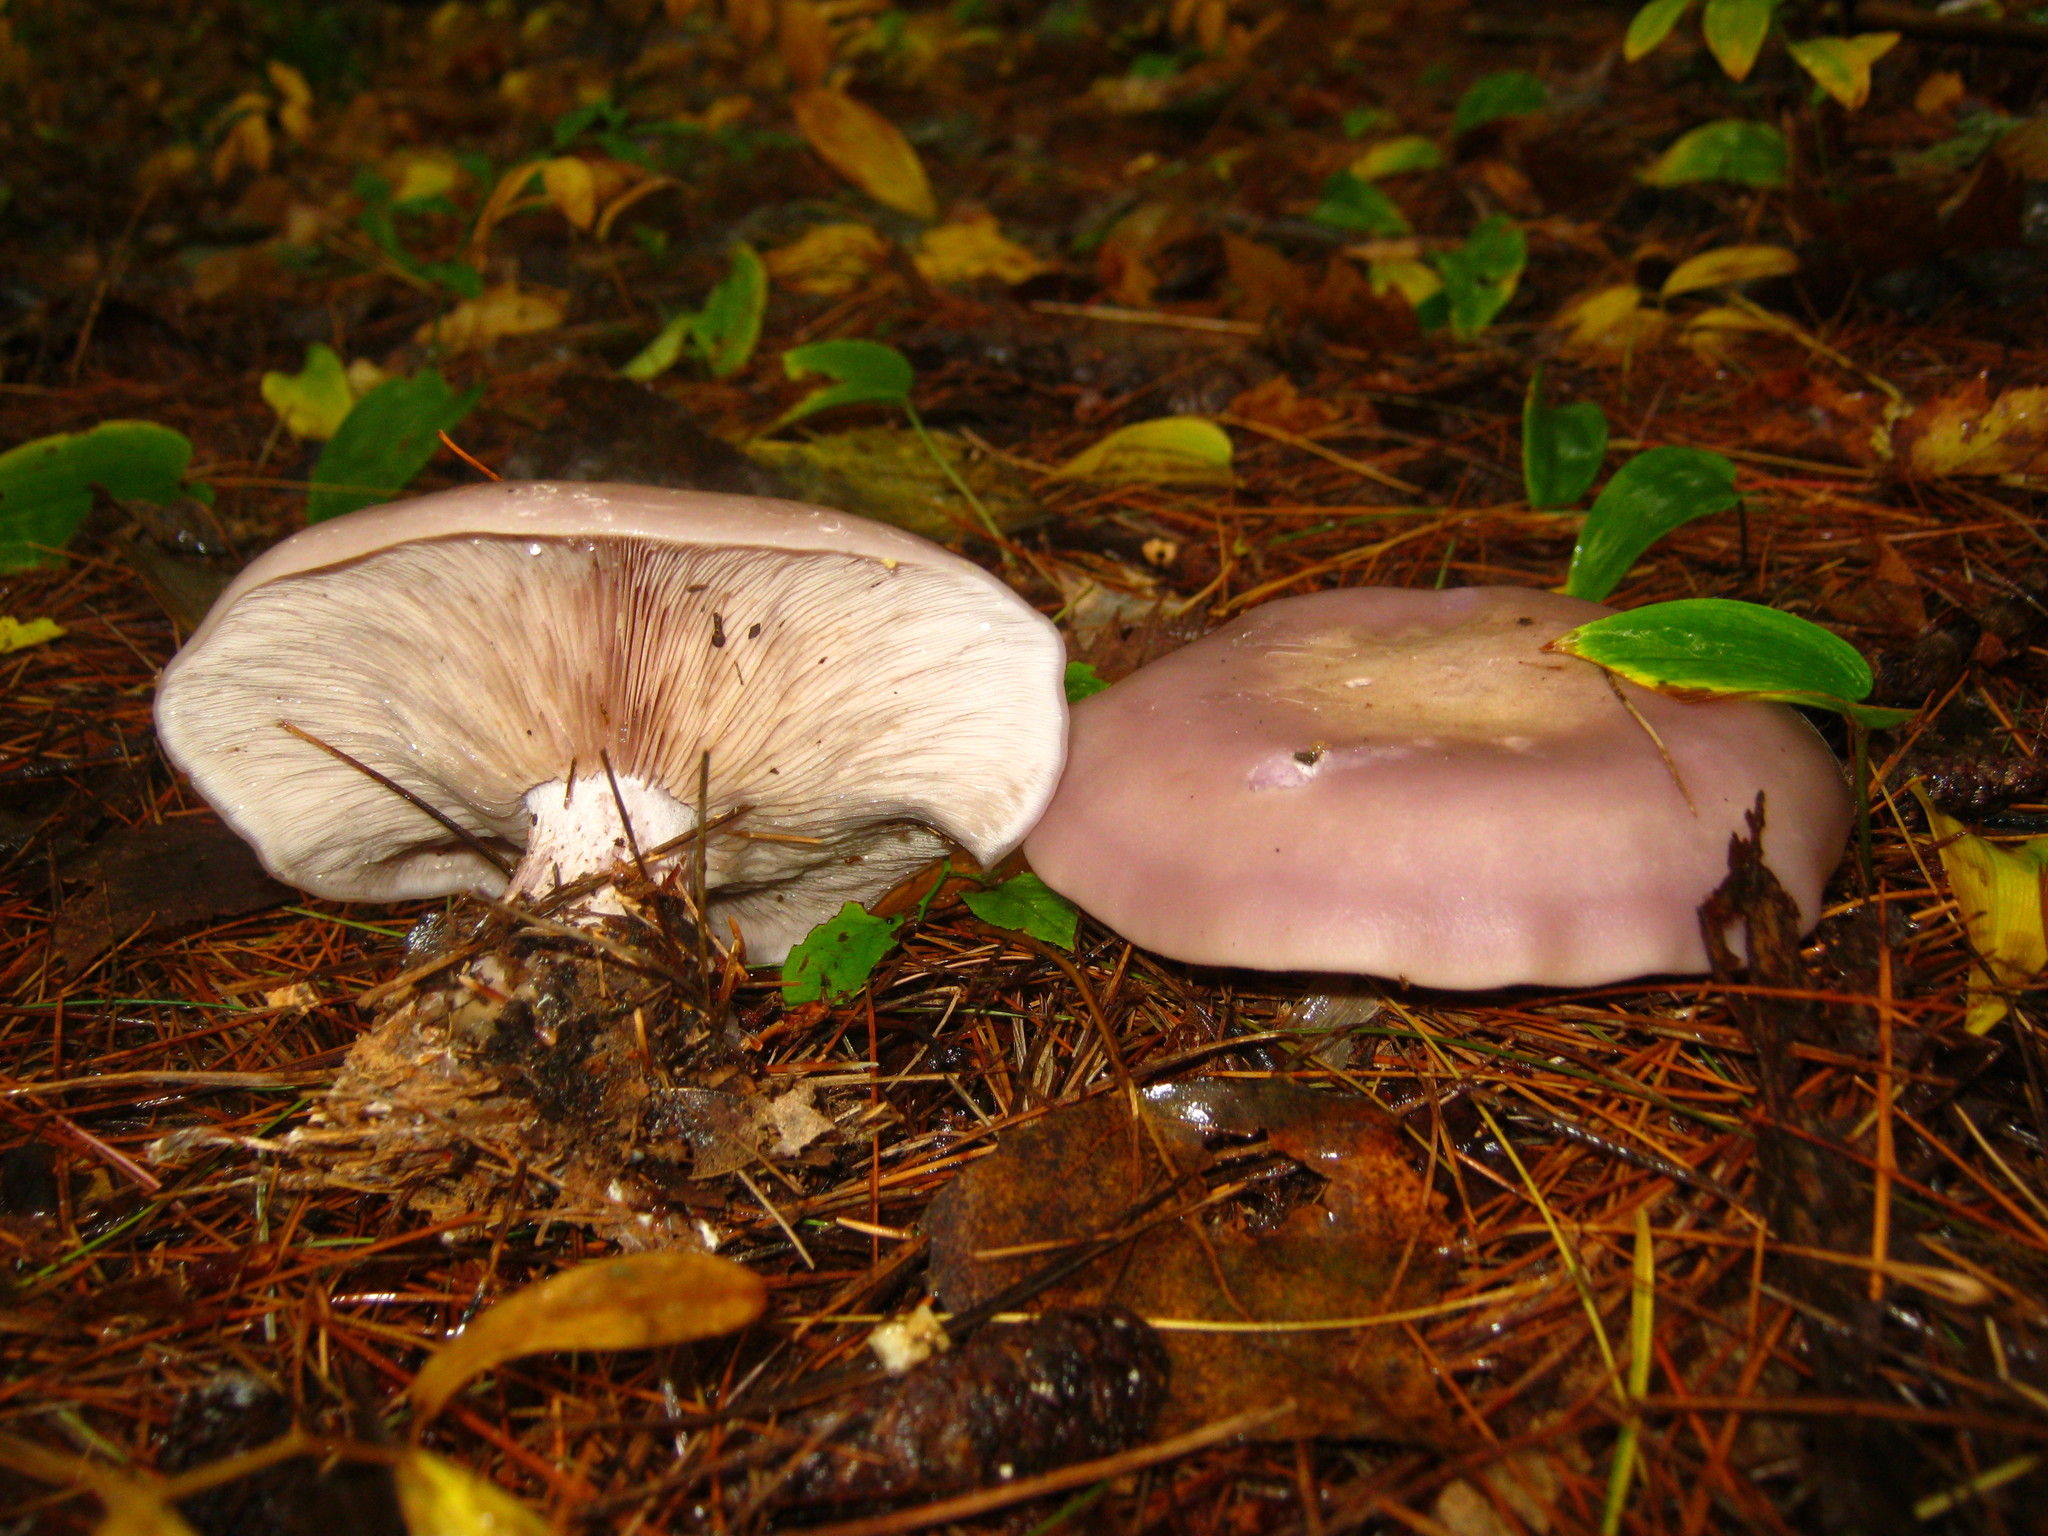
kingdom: Fungi
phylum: Basidiomycota
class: Agaricomycetes
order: Agaricales
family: Tricholomataceae
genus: Collybia
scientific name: Collybia
